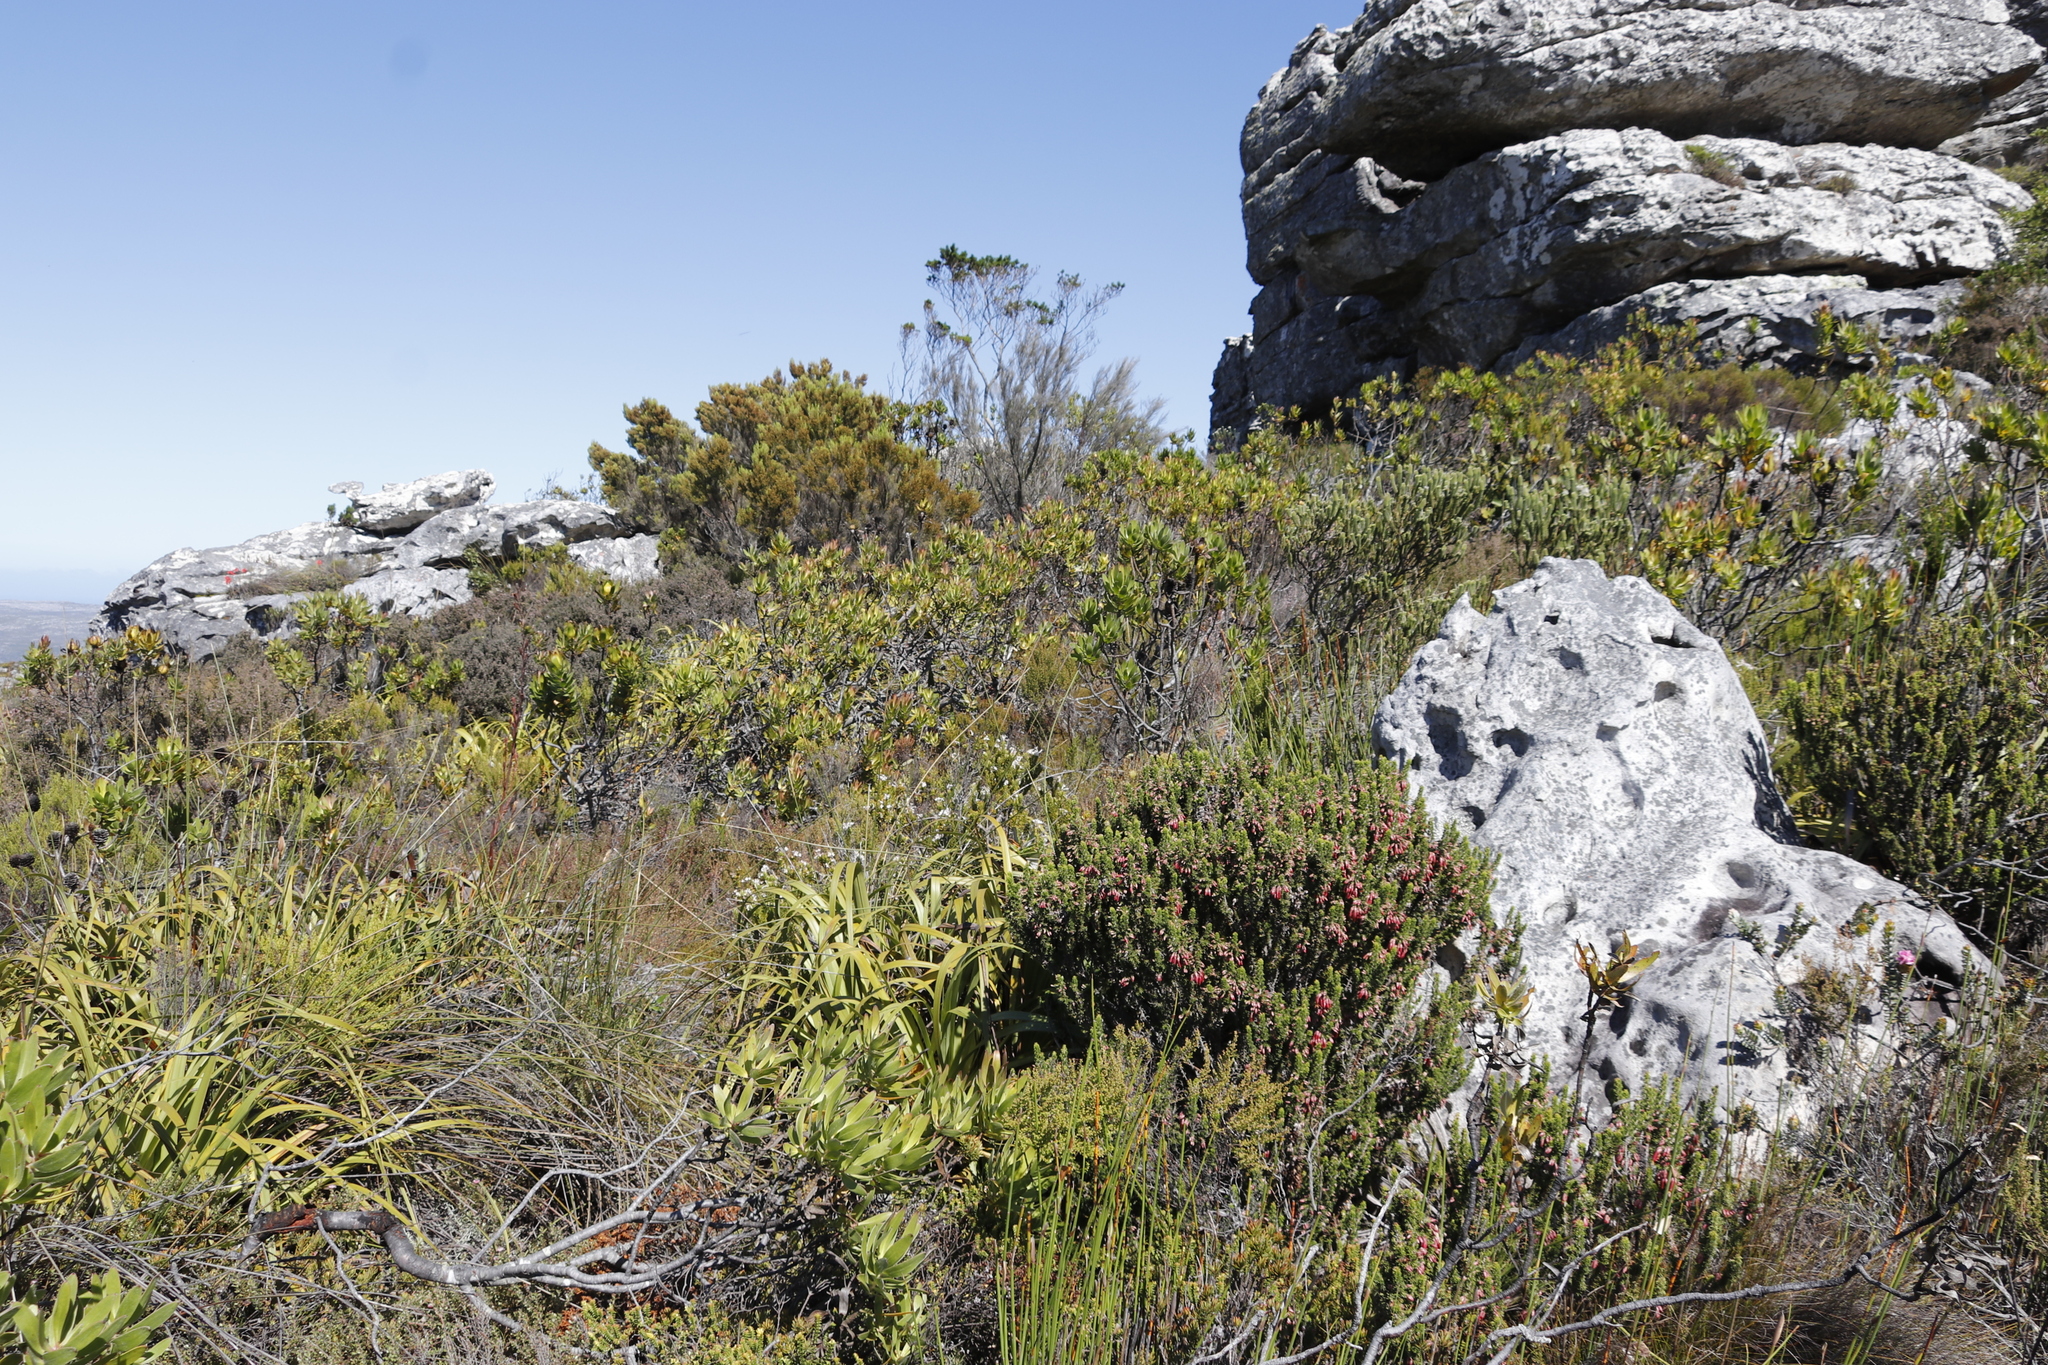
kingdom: Plantae
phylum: Tracheophyta
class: Magnoliopsida
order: Ericales
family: Ericaceae
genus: Erica
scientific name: Erica tristis
